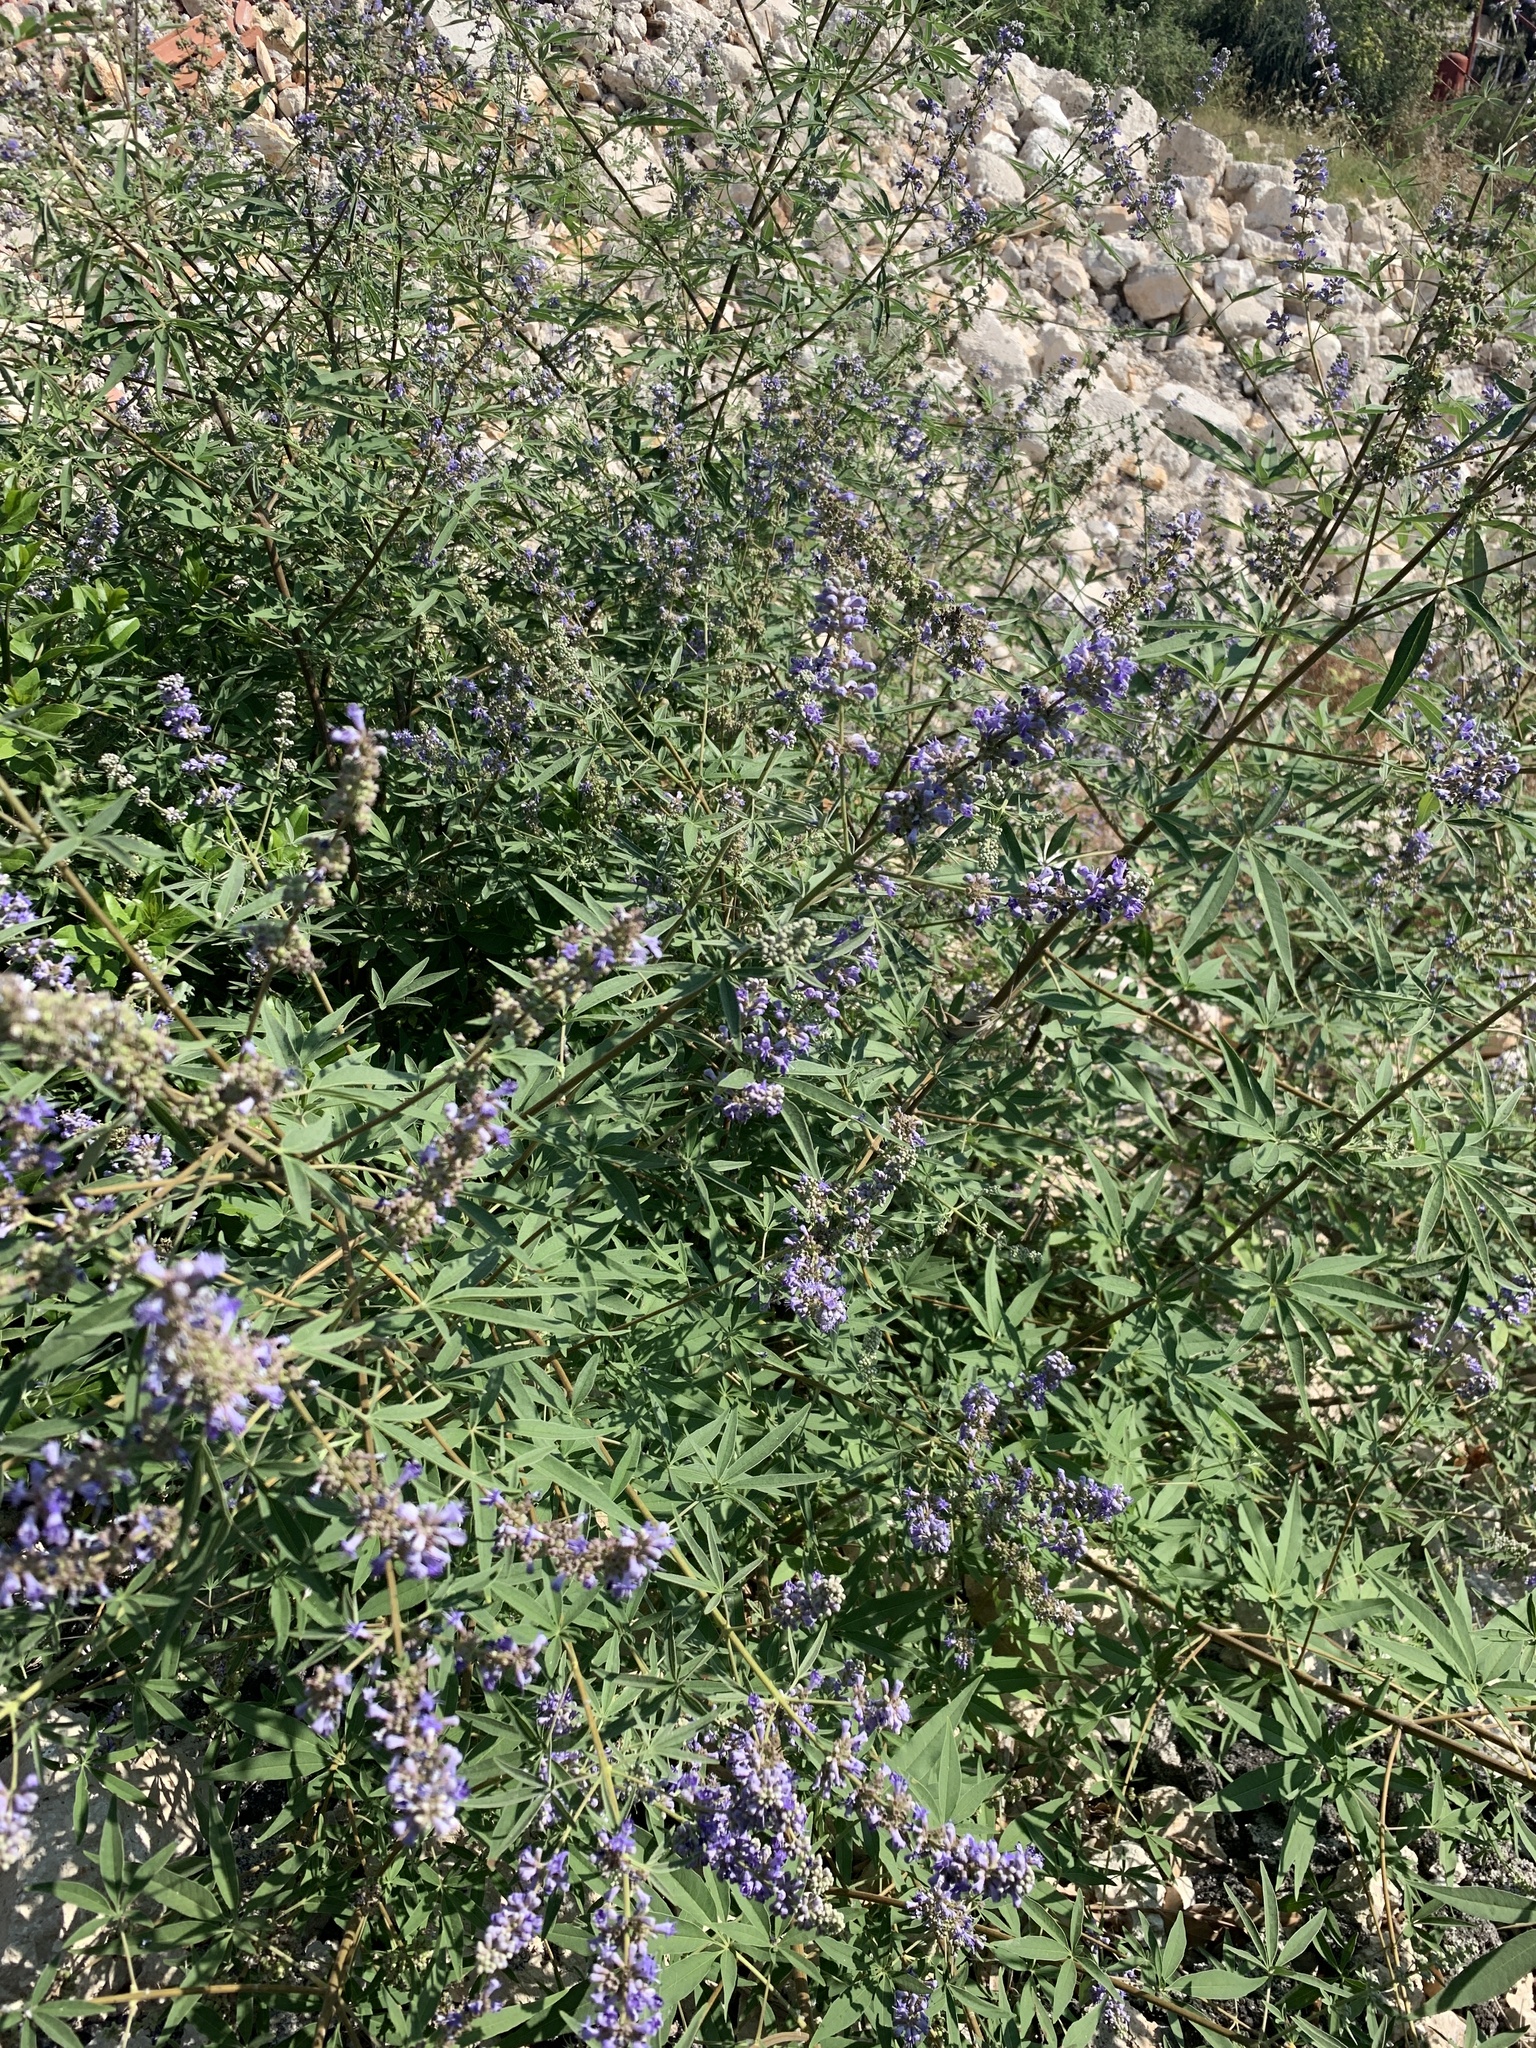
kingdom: Plantae
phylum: Tracheophyta
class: Magnoliopsida
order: Lamiales
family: Lamiaceae
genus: Vitex
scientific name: Vitex agnus-castus
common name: Chasteberry
